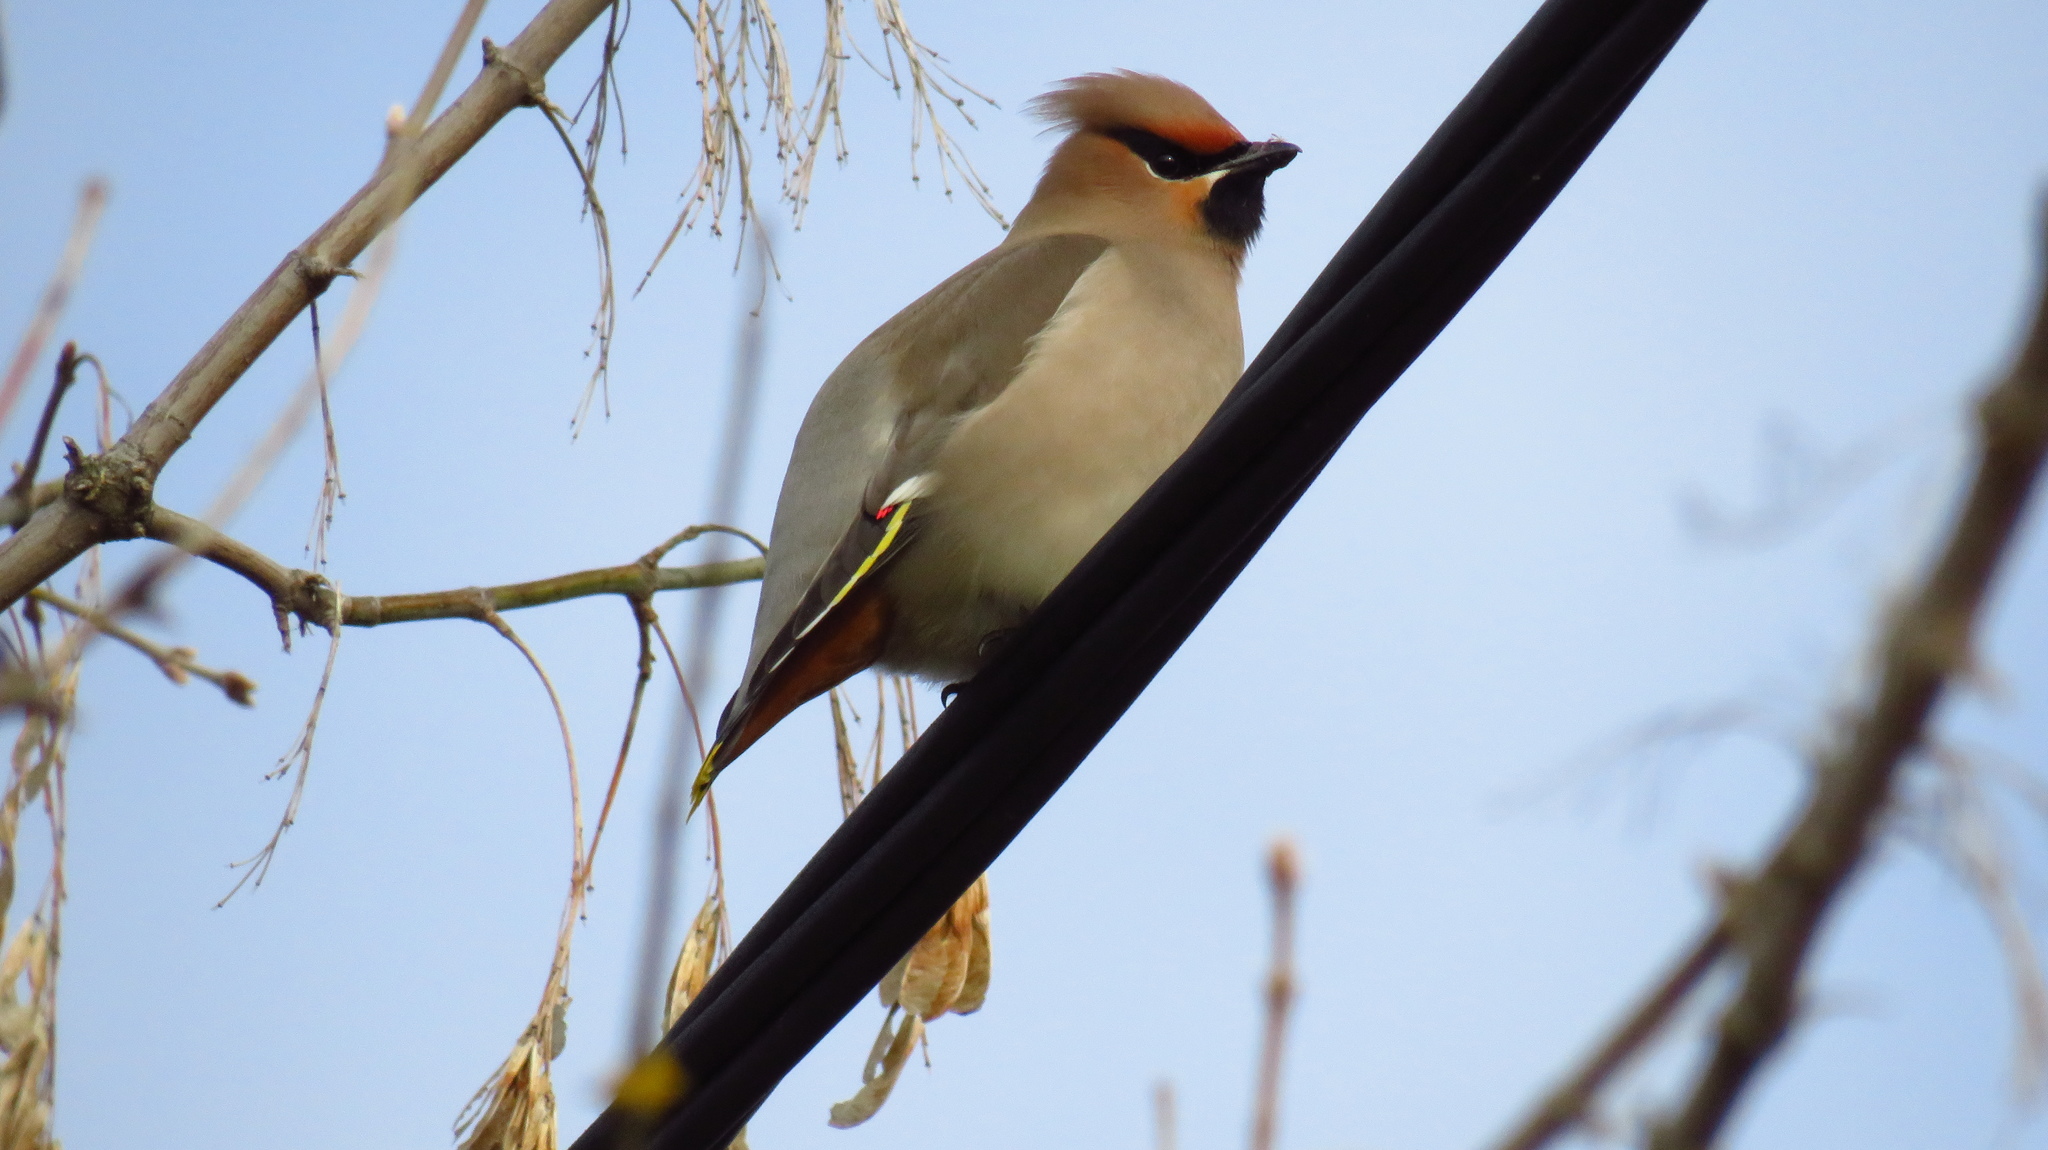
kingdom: Animalia
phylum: Chordata
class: Aves
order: Passeriformes
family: Bombycillidae
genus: Bombycilla
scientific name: Bombycilla garrulus
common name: Bohemian waxwing
